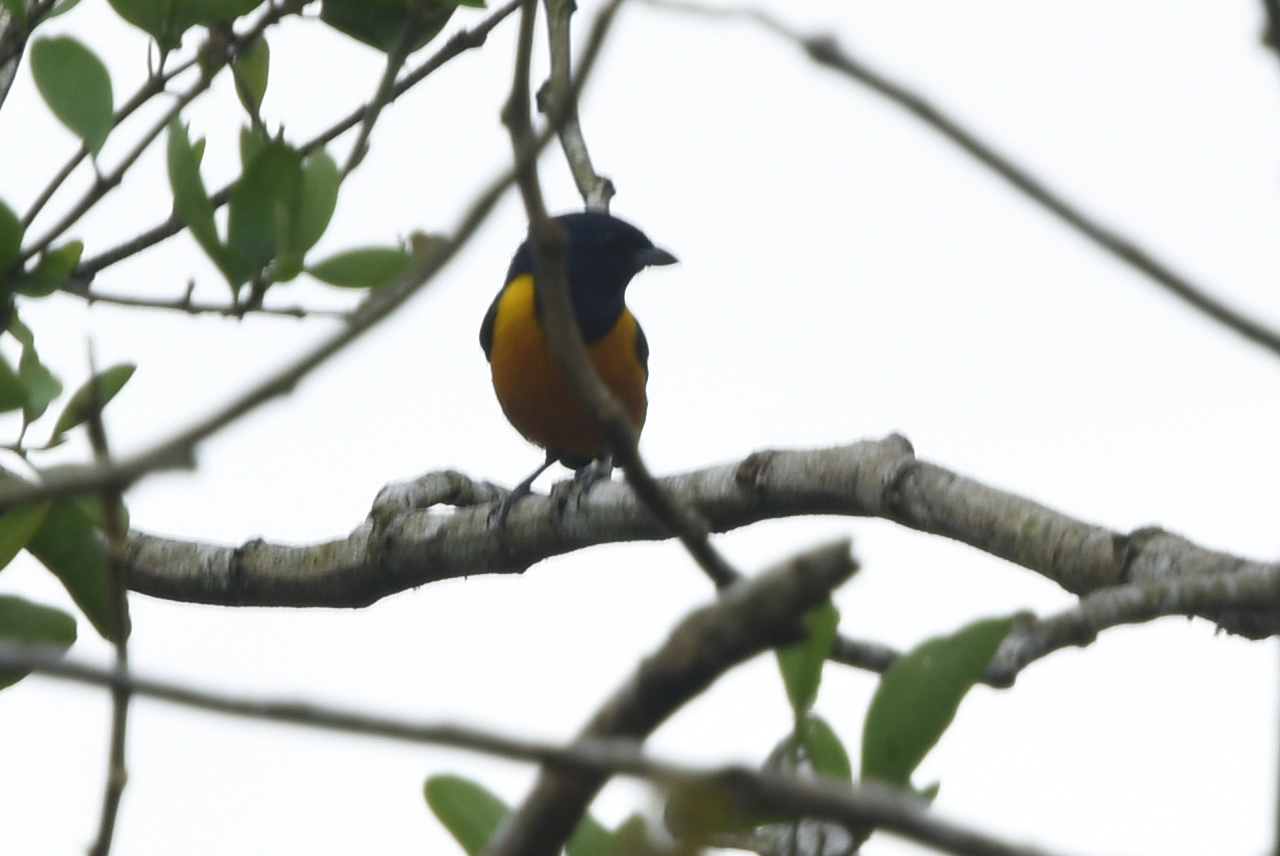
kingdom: Animalia
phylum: Chordata
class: Aves
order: Passeriformes
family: Fringillidae
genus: Euphonia
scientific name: Euphonia rufiventris
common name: Rufous-bellied euphonia
